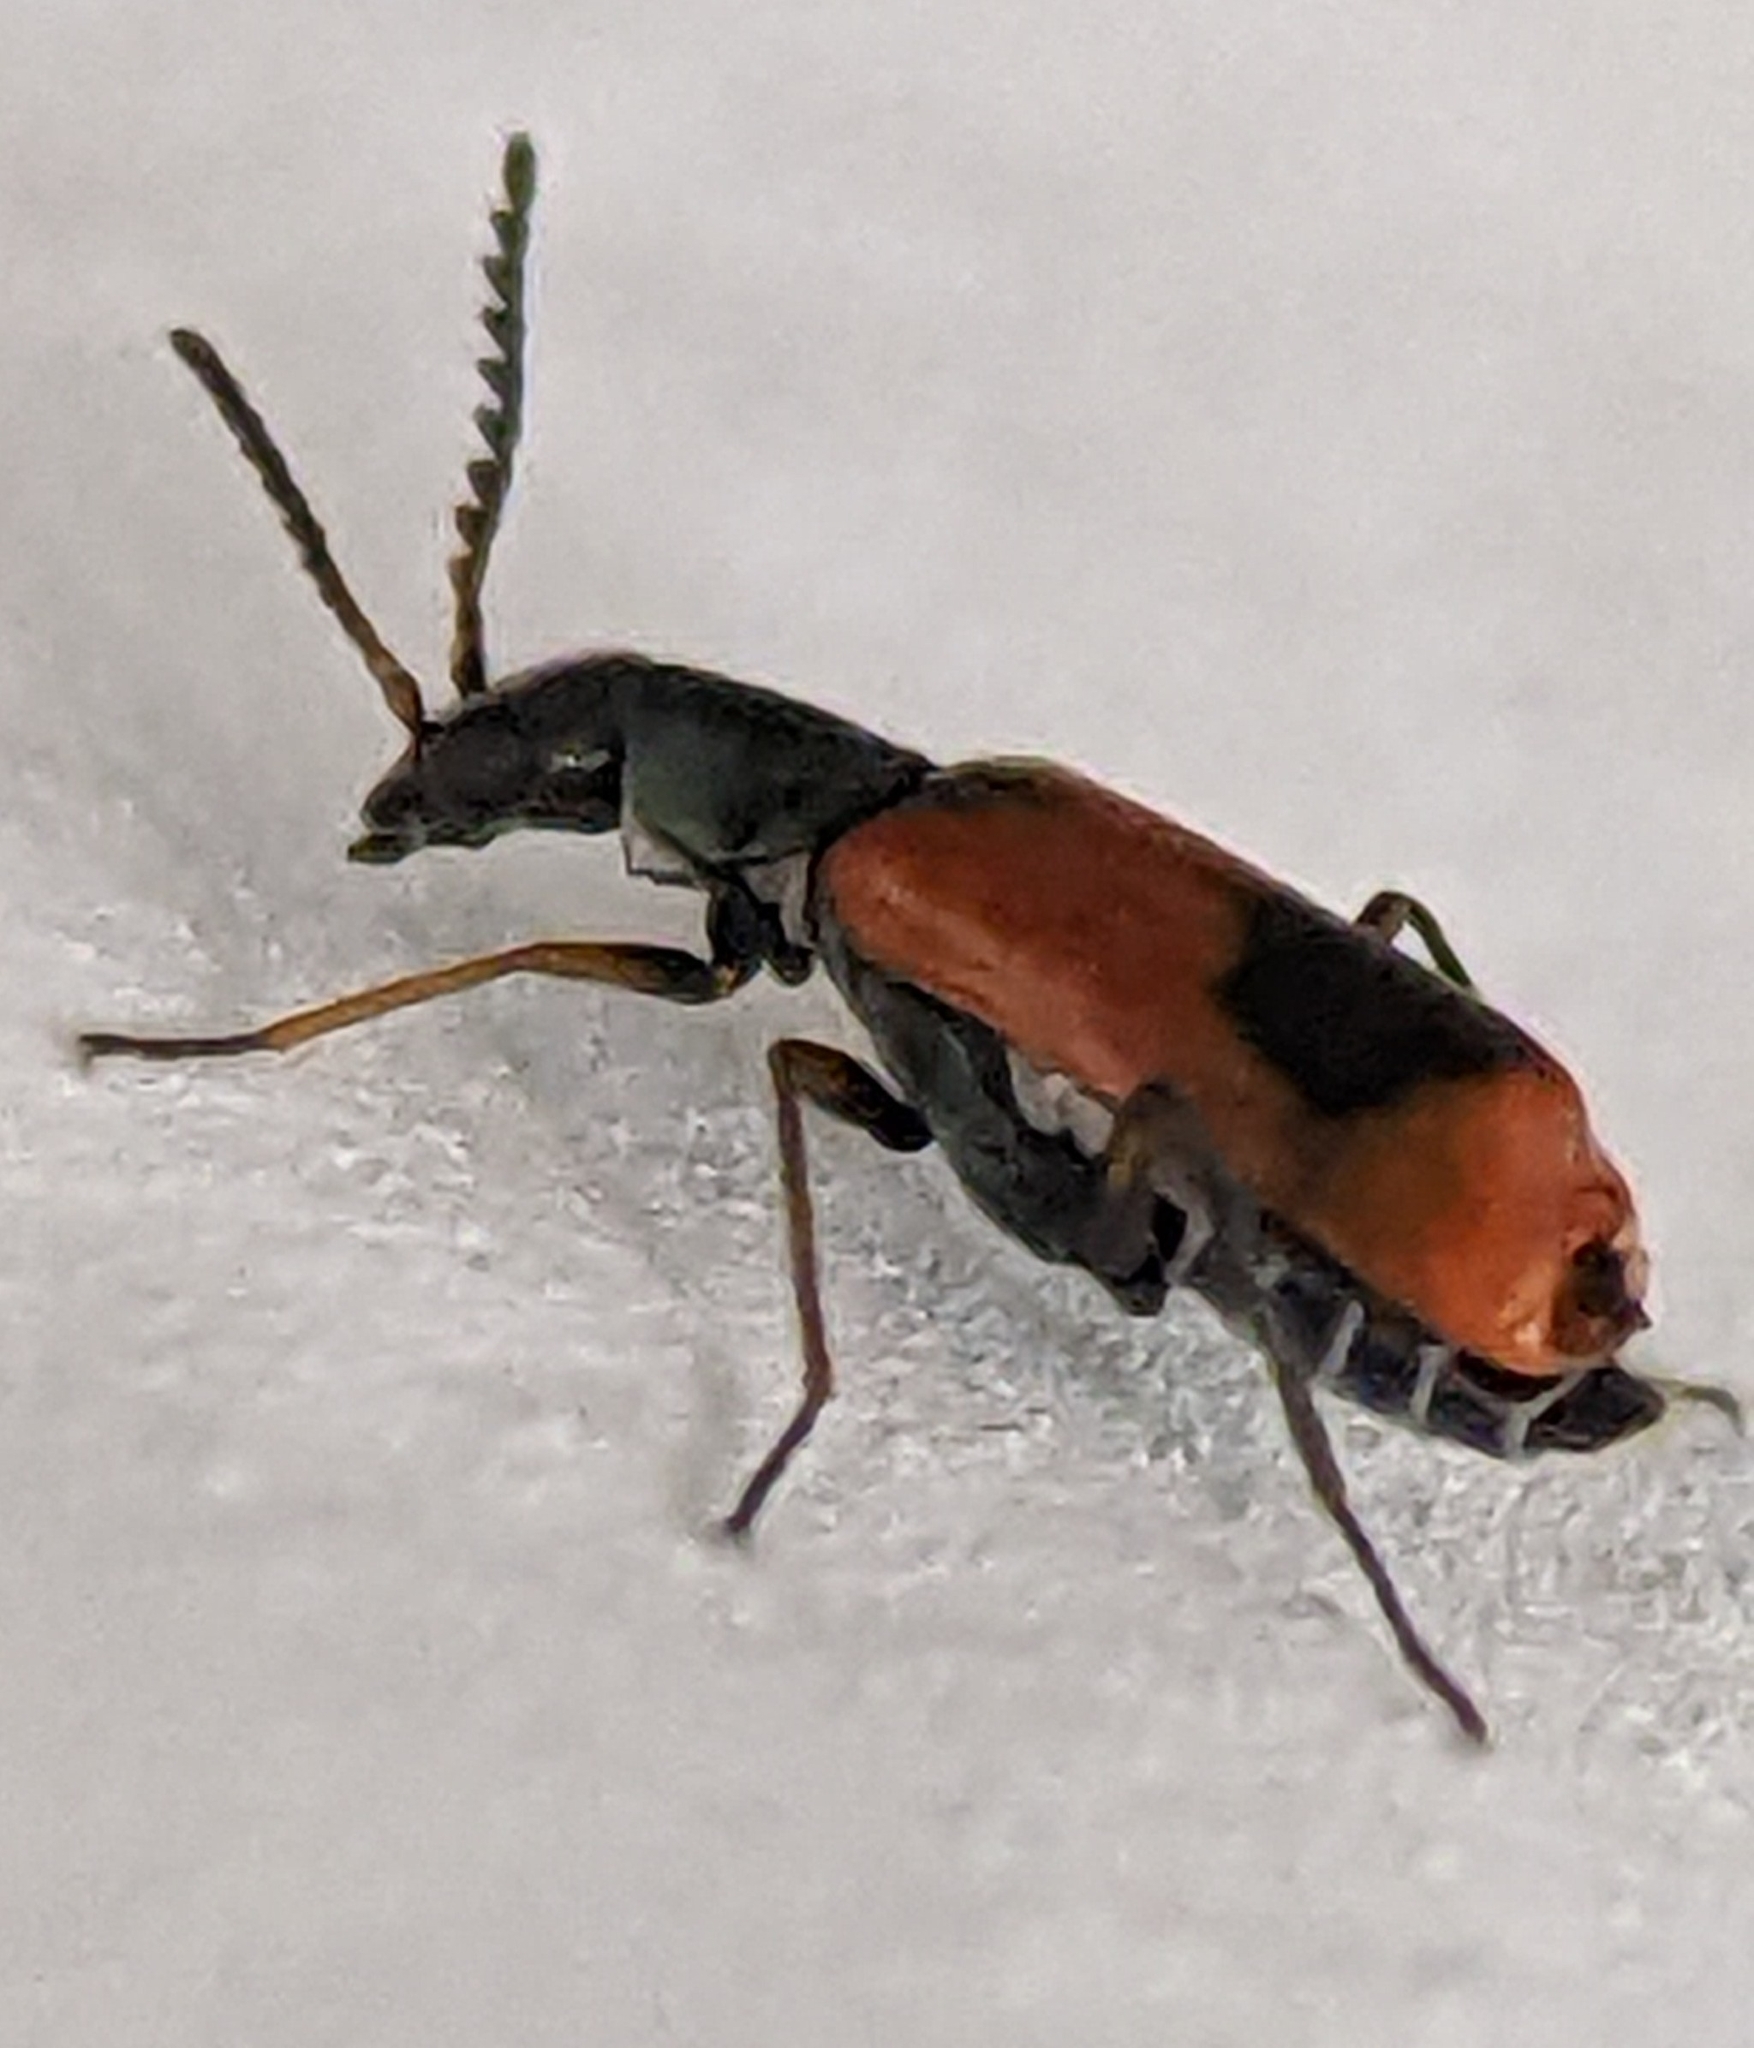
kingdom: Animalia
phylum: Arthropoda
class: Insecta
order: Coleoptera
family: Melyridae
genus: Anthocomus
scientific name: Anthocomus equestris
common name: Black-banded soft-winged flower beetle
